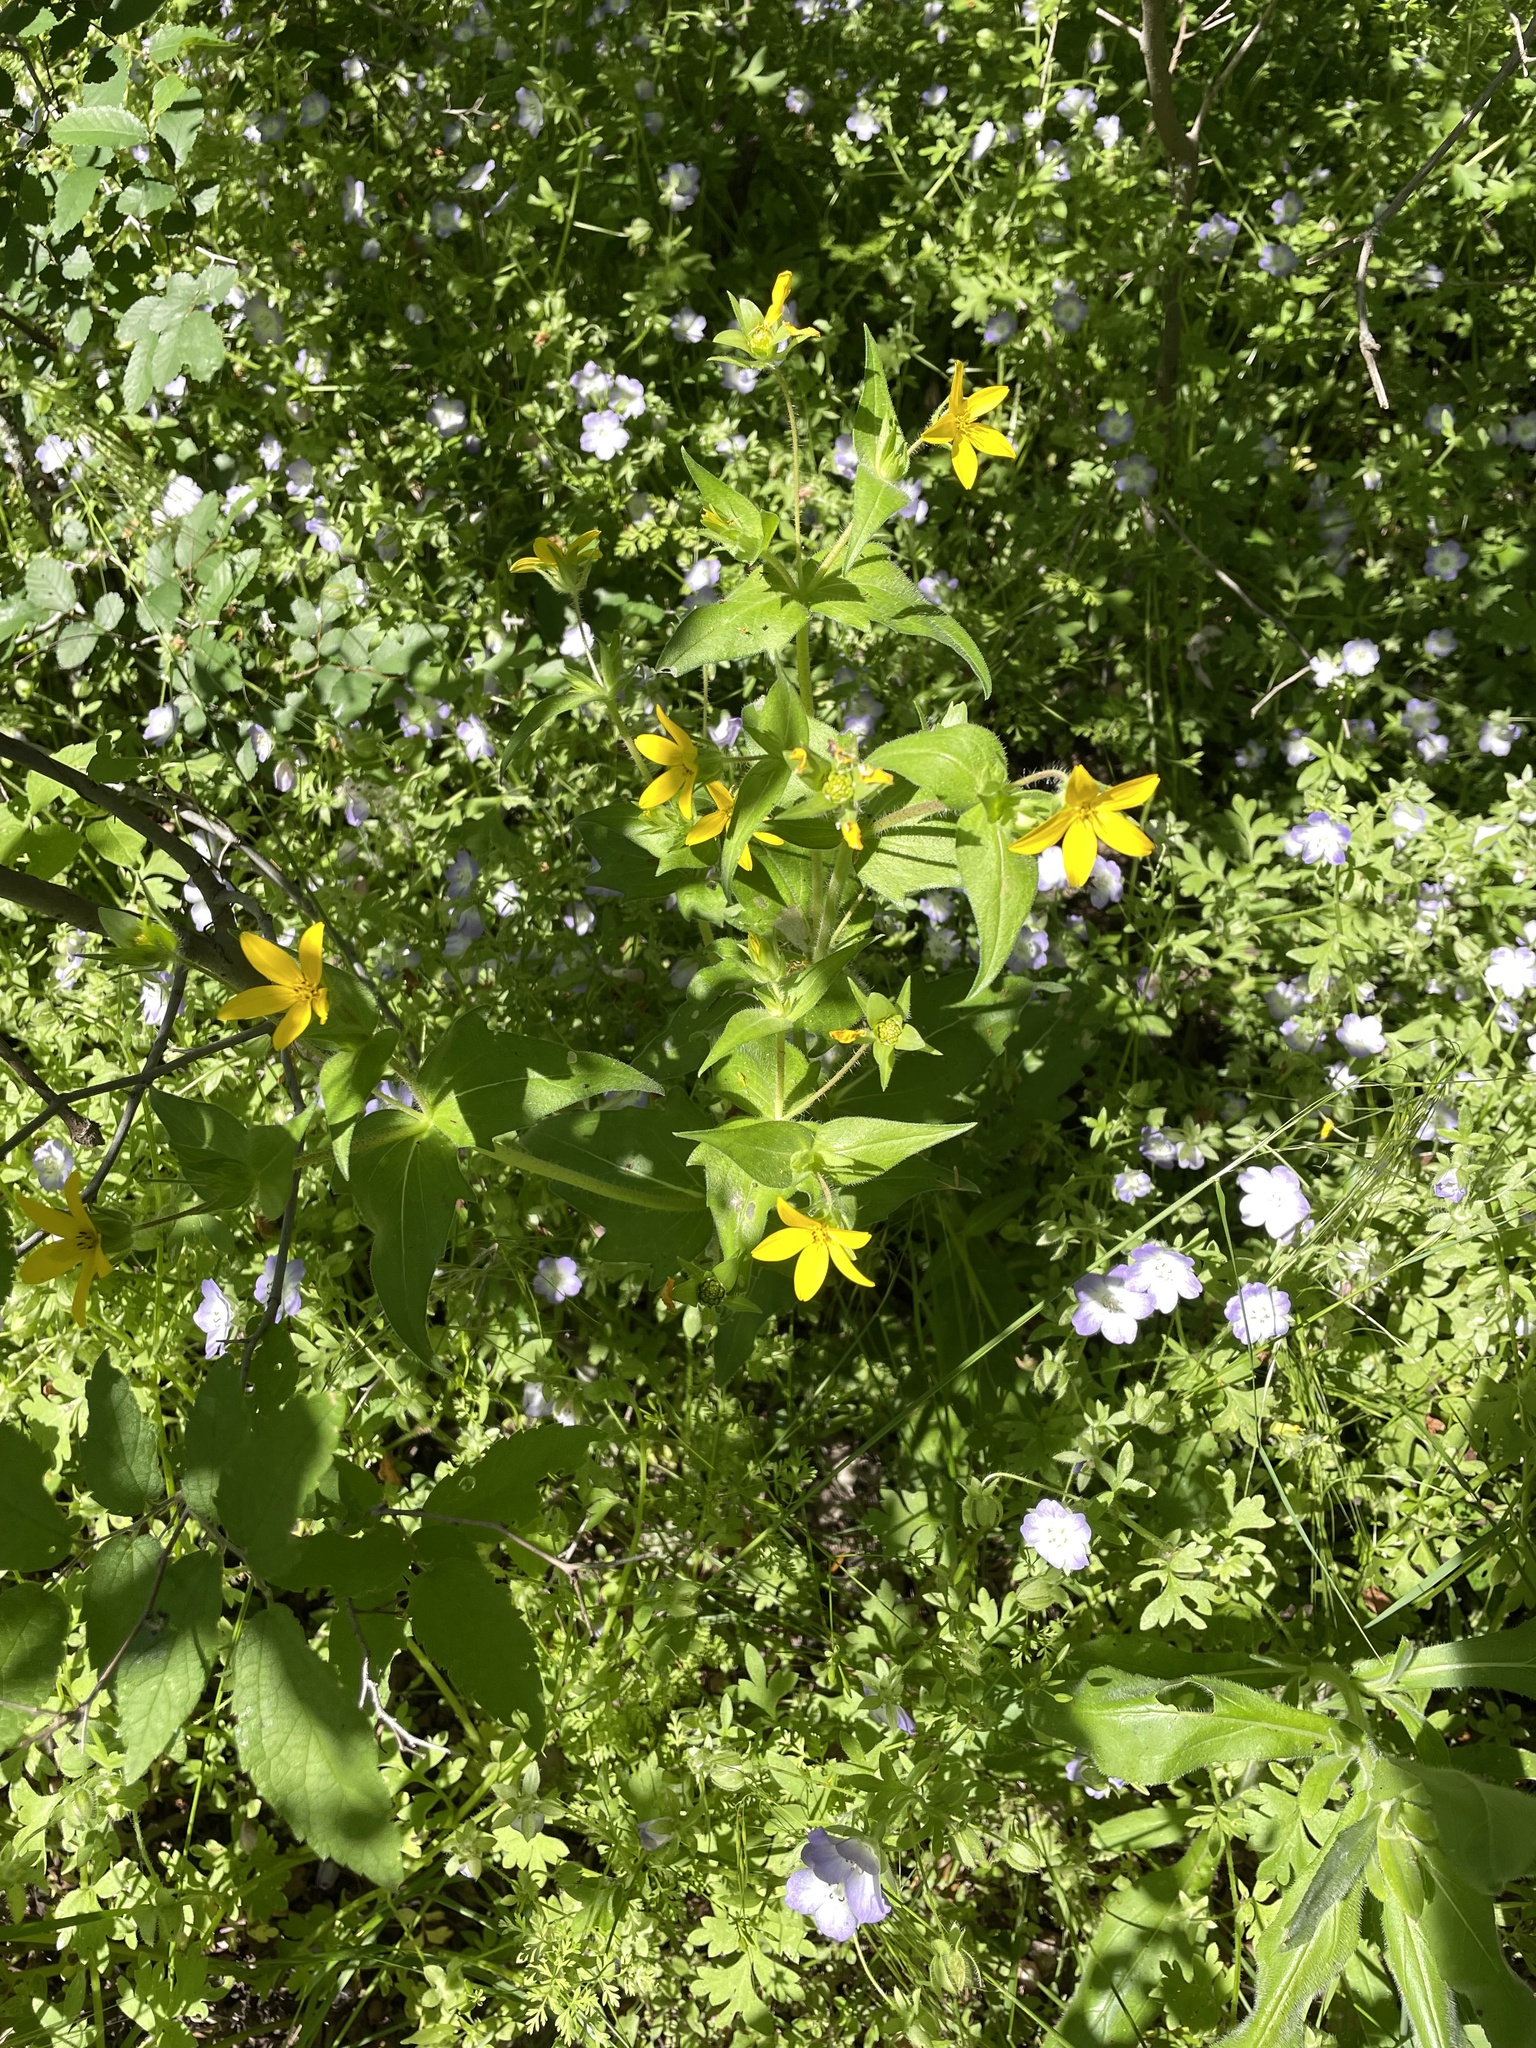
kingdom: Plantae
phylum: Tracheophyta
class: Magnoliopsida
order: Asterales
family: Asteraceae
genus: Lindheimera
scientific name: Lindheimera texana
